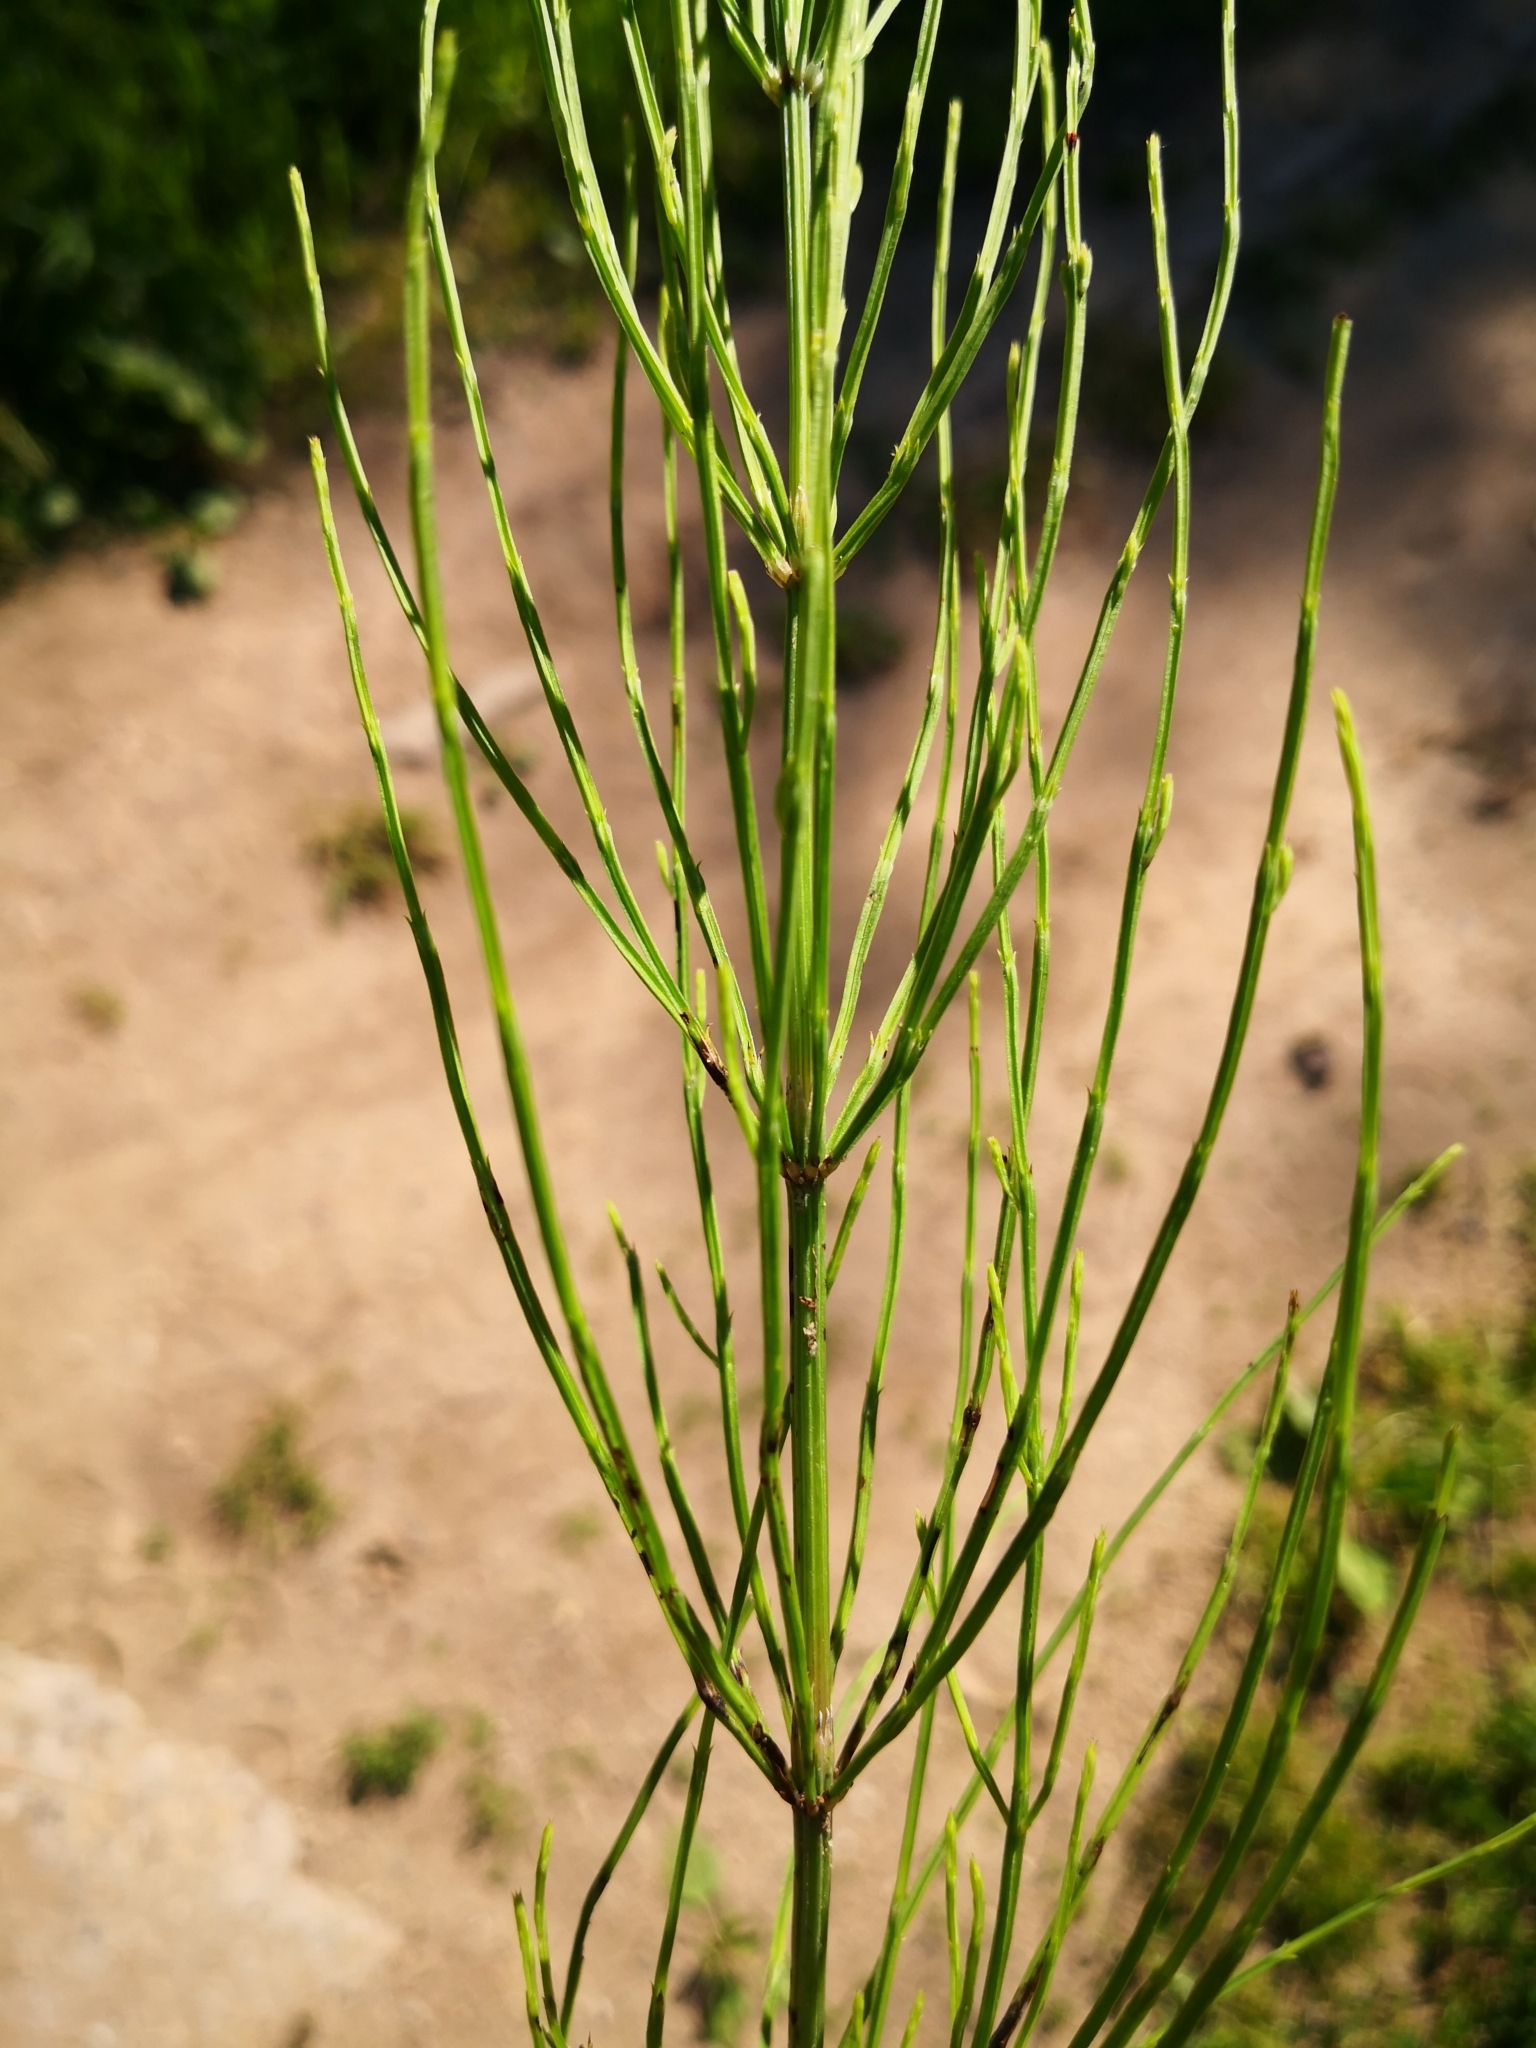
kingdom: Plantae
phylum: Tracheophyta
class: Polypodiopsida
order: Equisetales
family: Equisetaceae
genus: Equisetum
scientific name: Equisetum arvense
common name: Field horsetail
